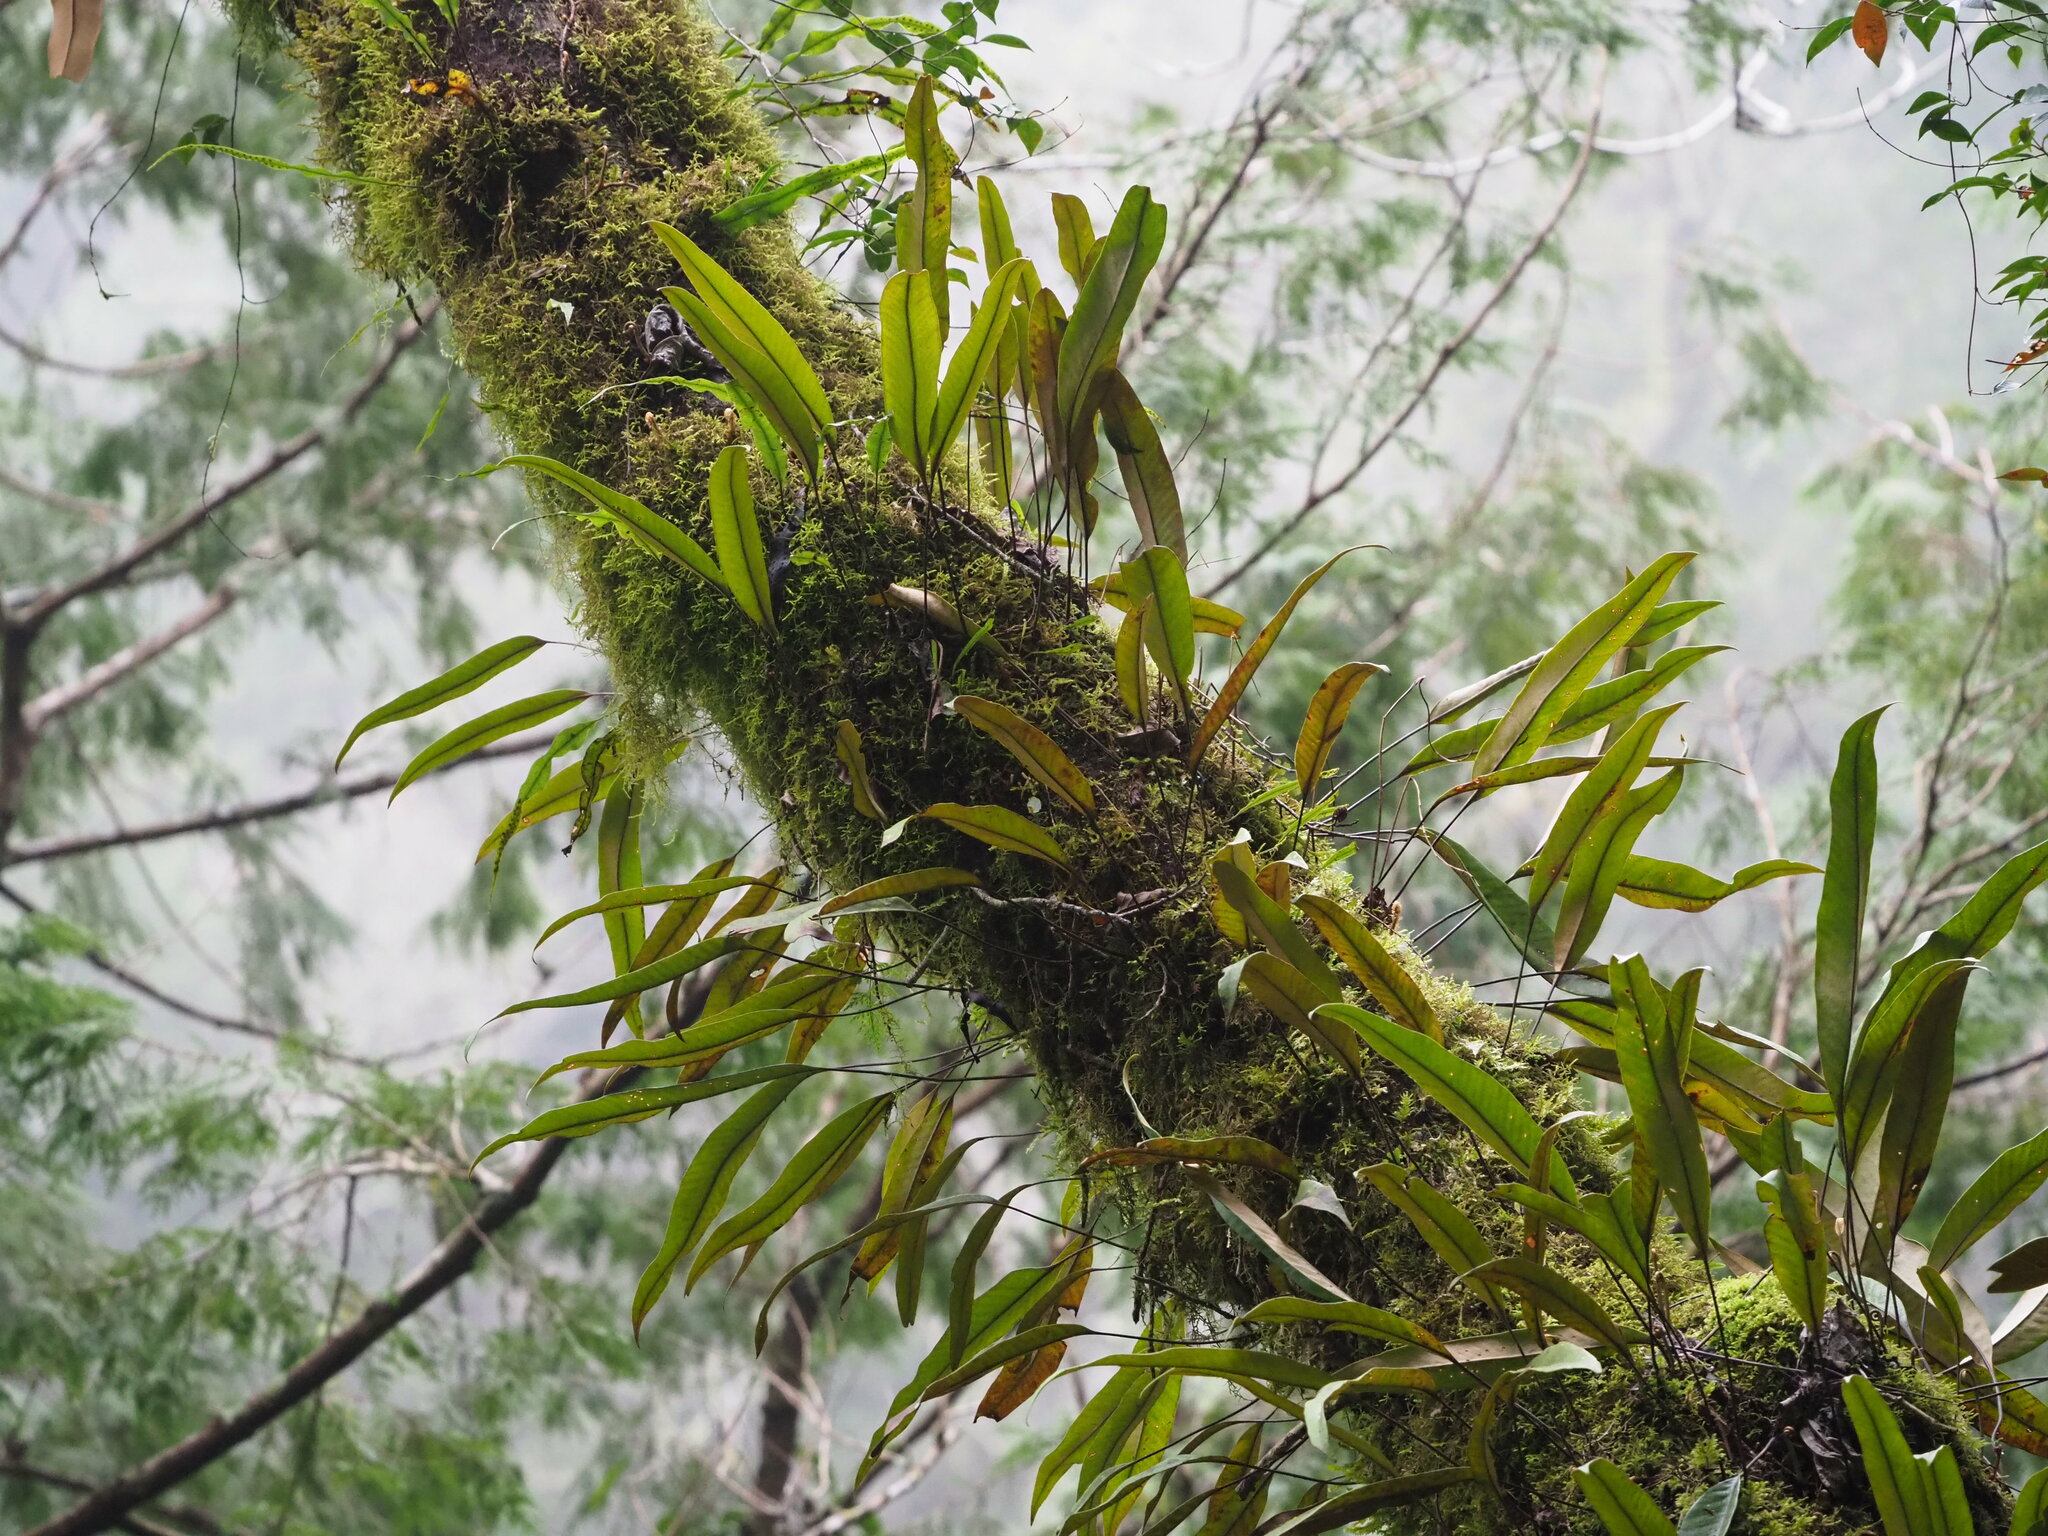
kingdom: Plantae
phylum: Tracheophyta
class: Polypodiopsida
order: Polypodiales
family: Polypodiaceae
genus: Pyrrosia
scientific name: Pyrrosia lingua
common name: Felt fern
